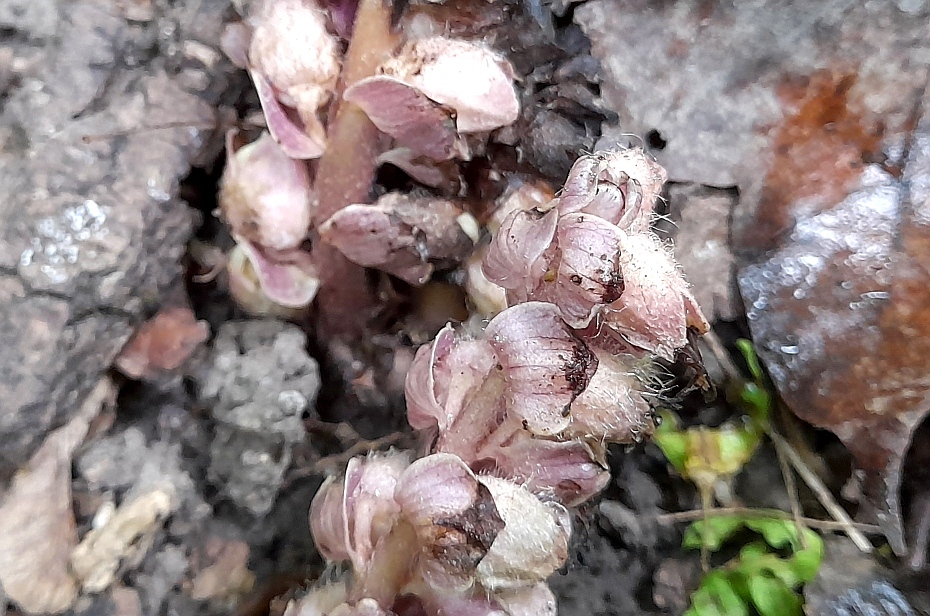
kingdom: Plantae
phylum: Tracheophyta
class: Magnoliopsida
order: Lamiales
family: Orobanchaceae
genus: Lathraea
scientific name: Lathraea squamaria
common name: Toothwort
